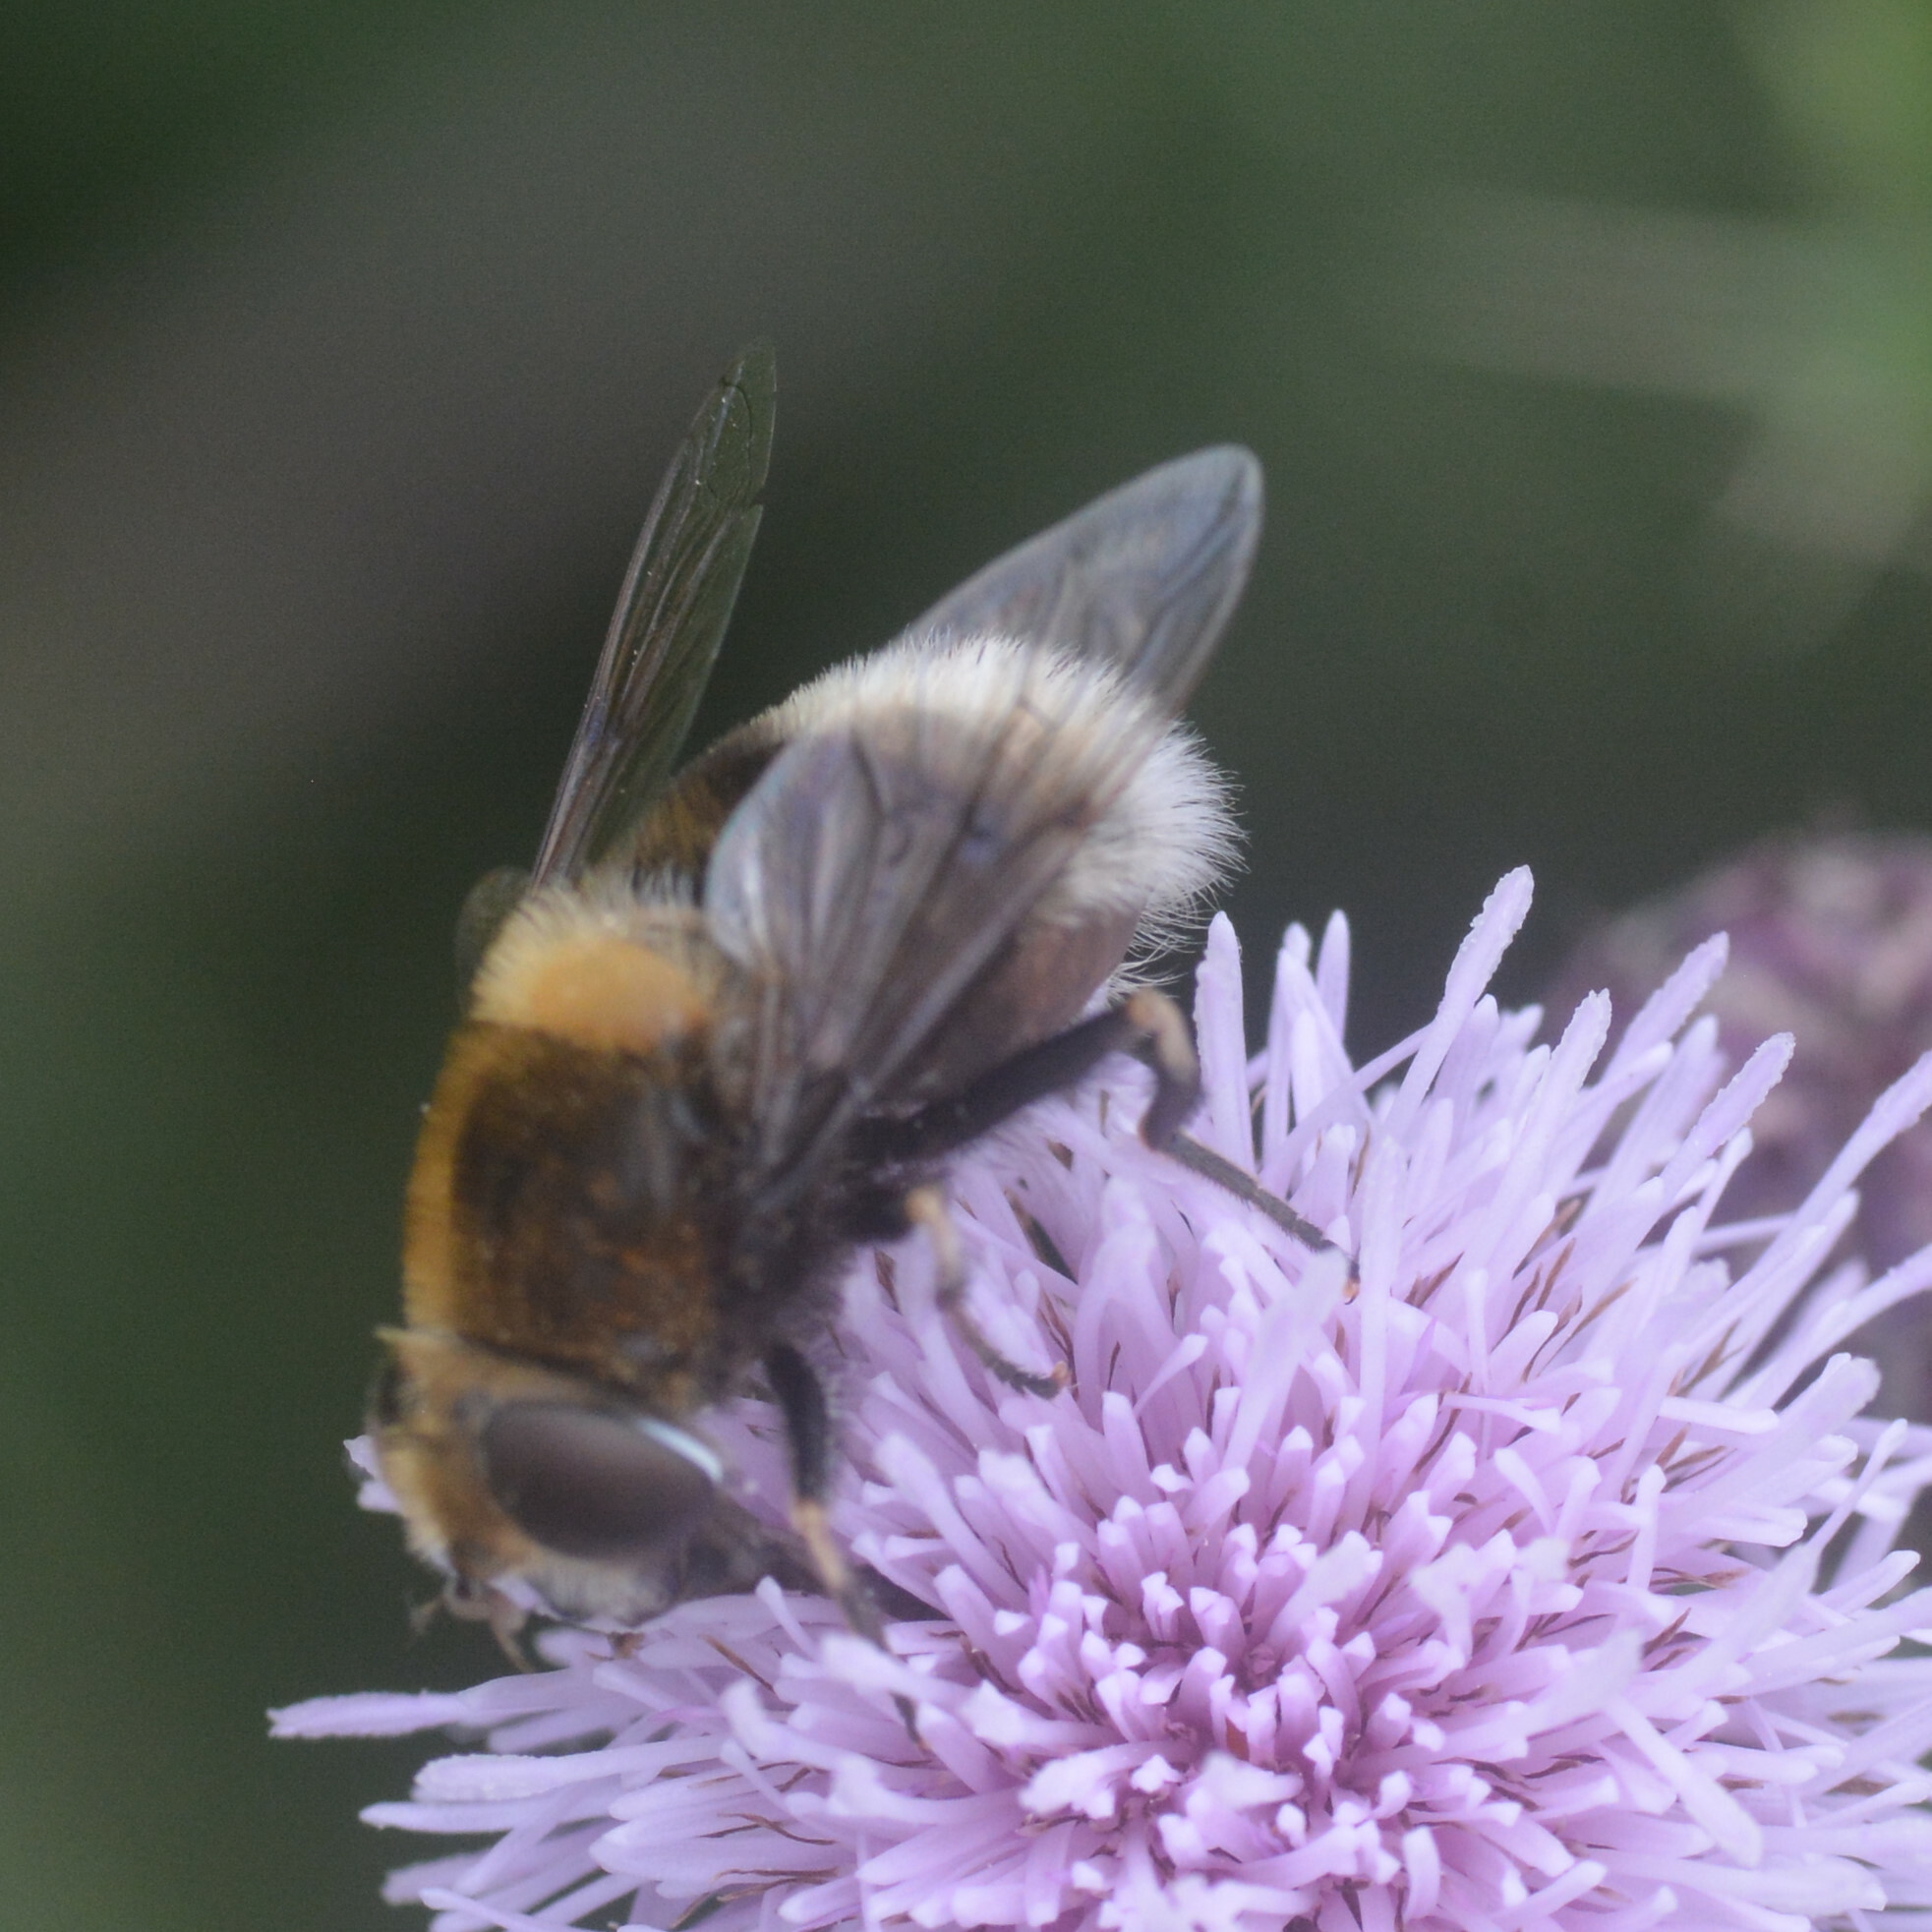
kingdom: Animalia
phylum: Arthropoda
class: Insecta
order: Diptera
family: Syrphidae
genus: Eristalis
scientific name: Eristalis intricaria
